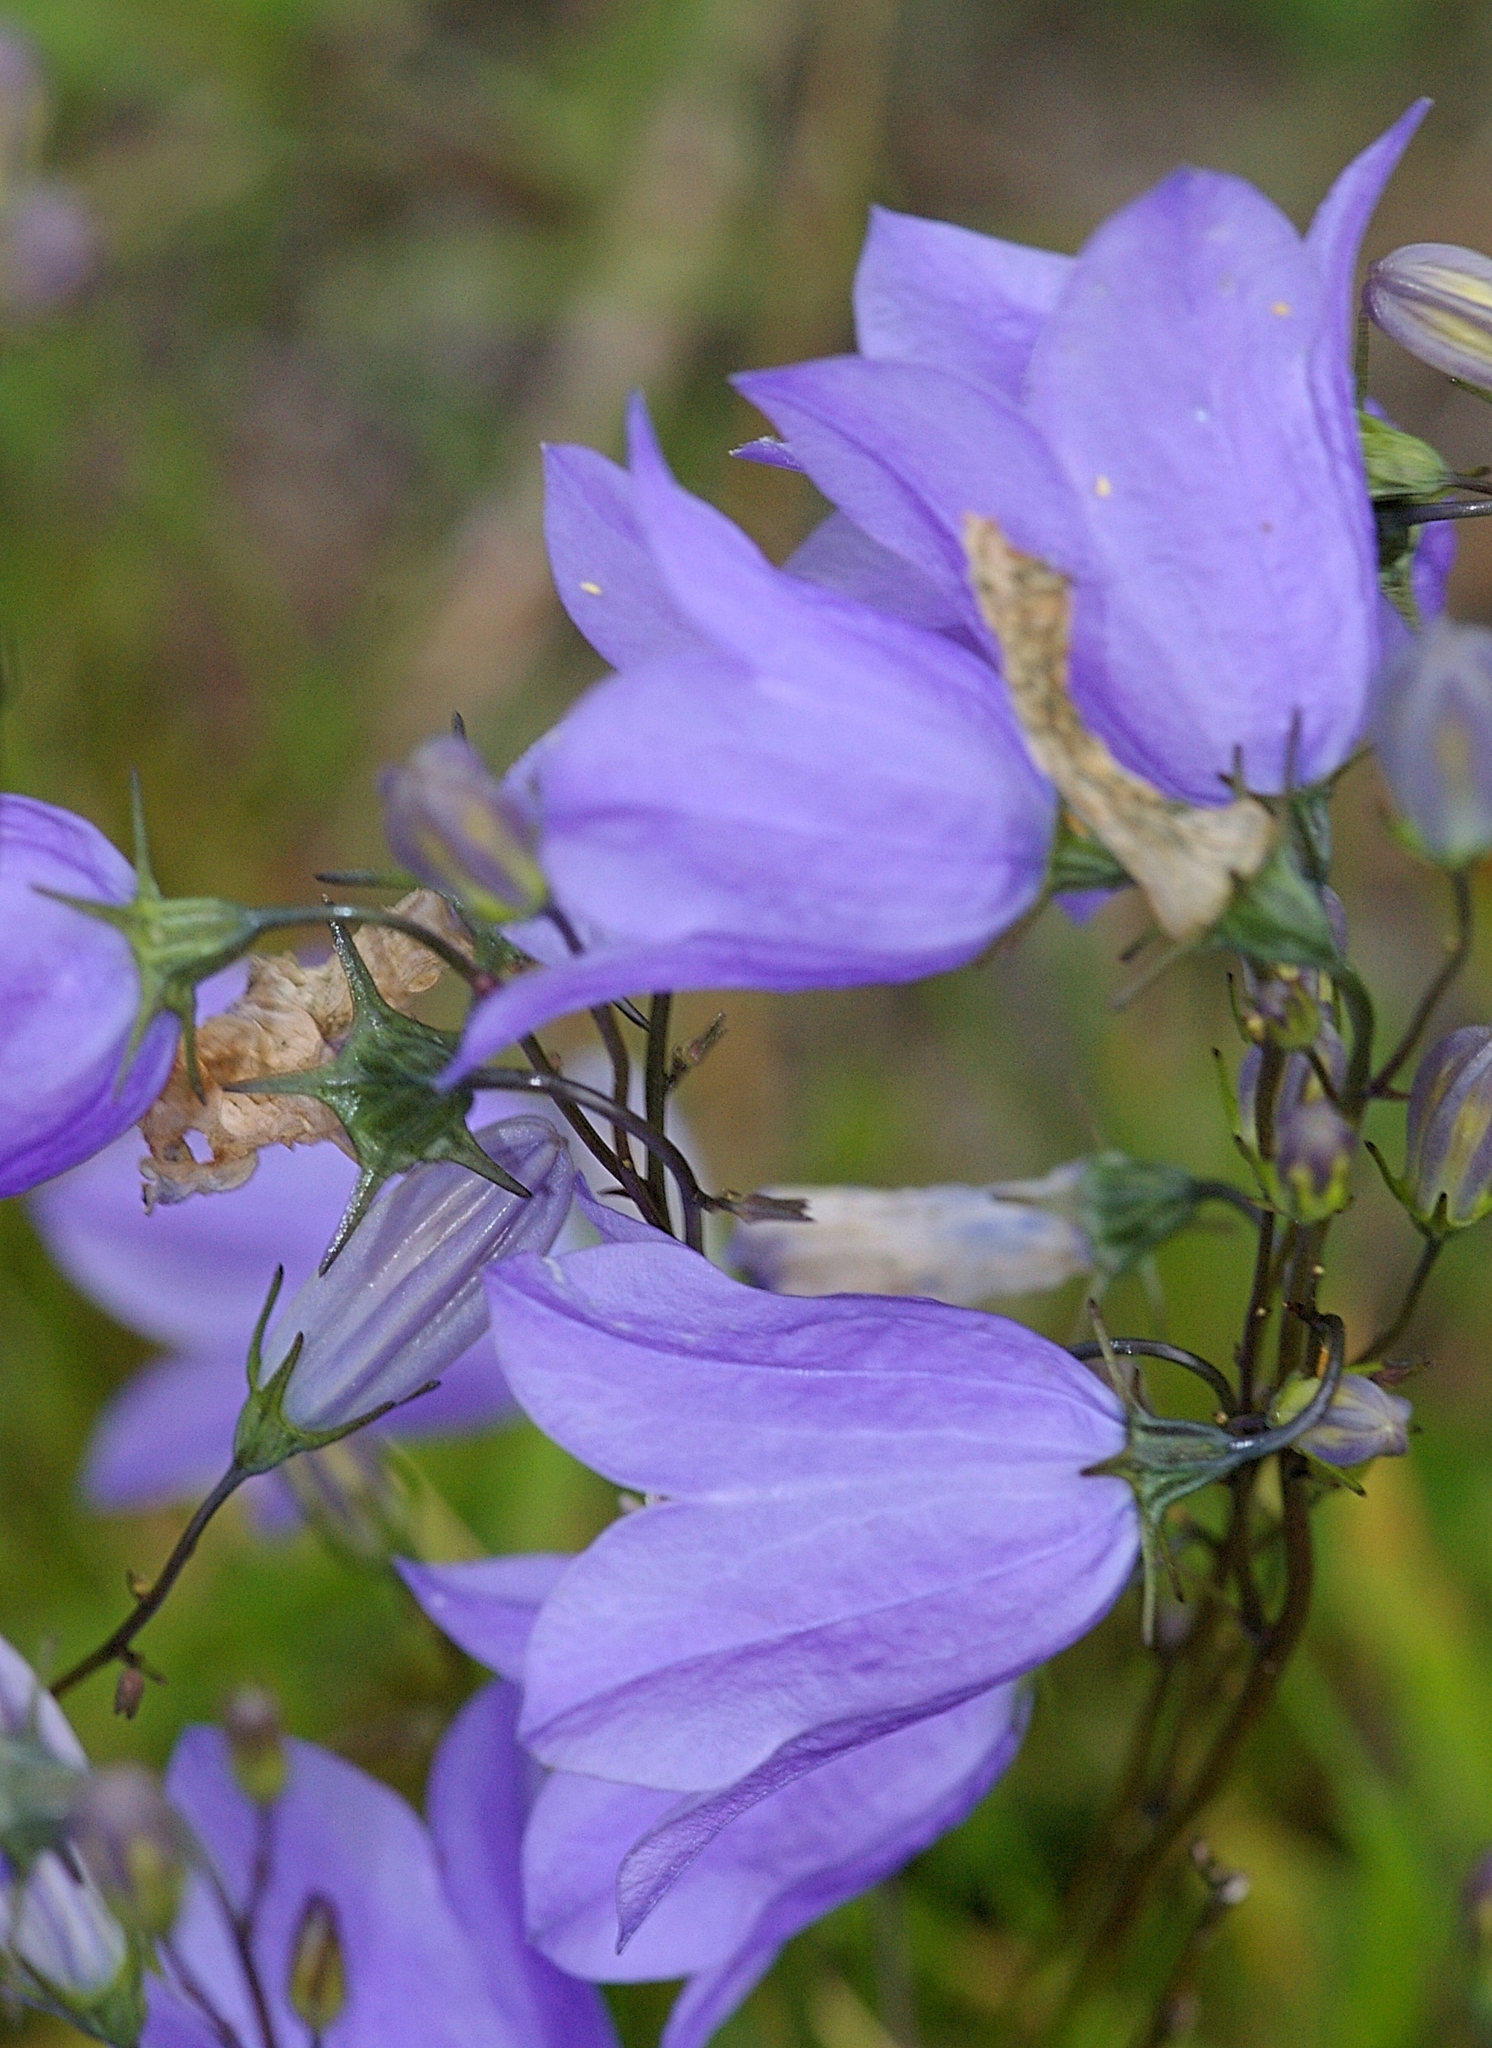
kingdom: Plantae
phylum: Tracheophyta
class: Magnoliopsida
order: Asterales
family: Campanulaceae
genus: Campanula
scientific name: Campanula rotundifolia
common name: Harebell
